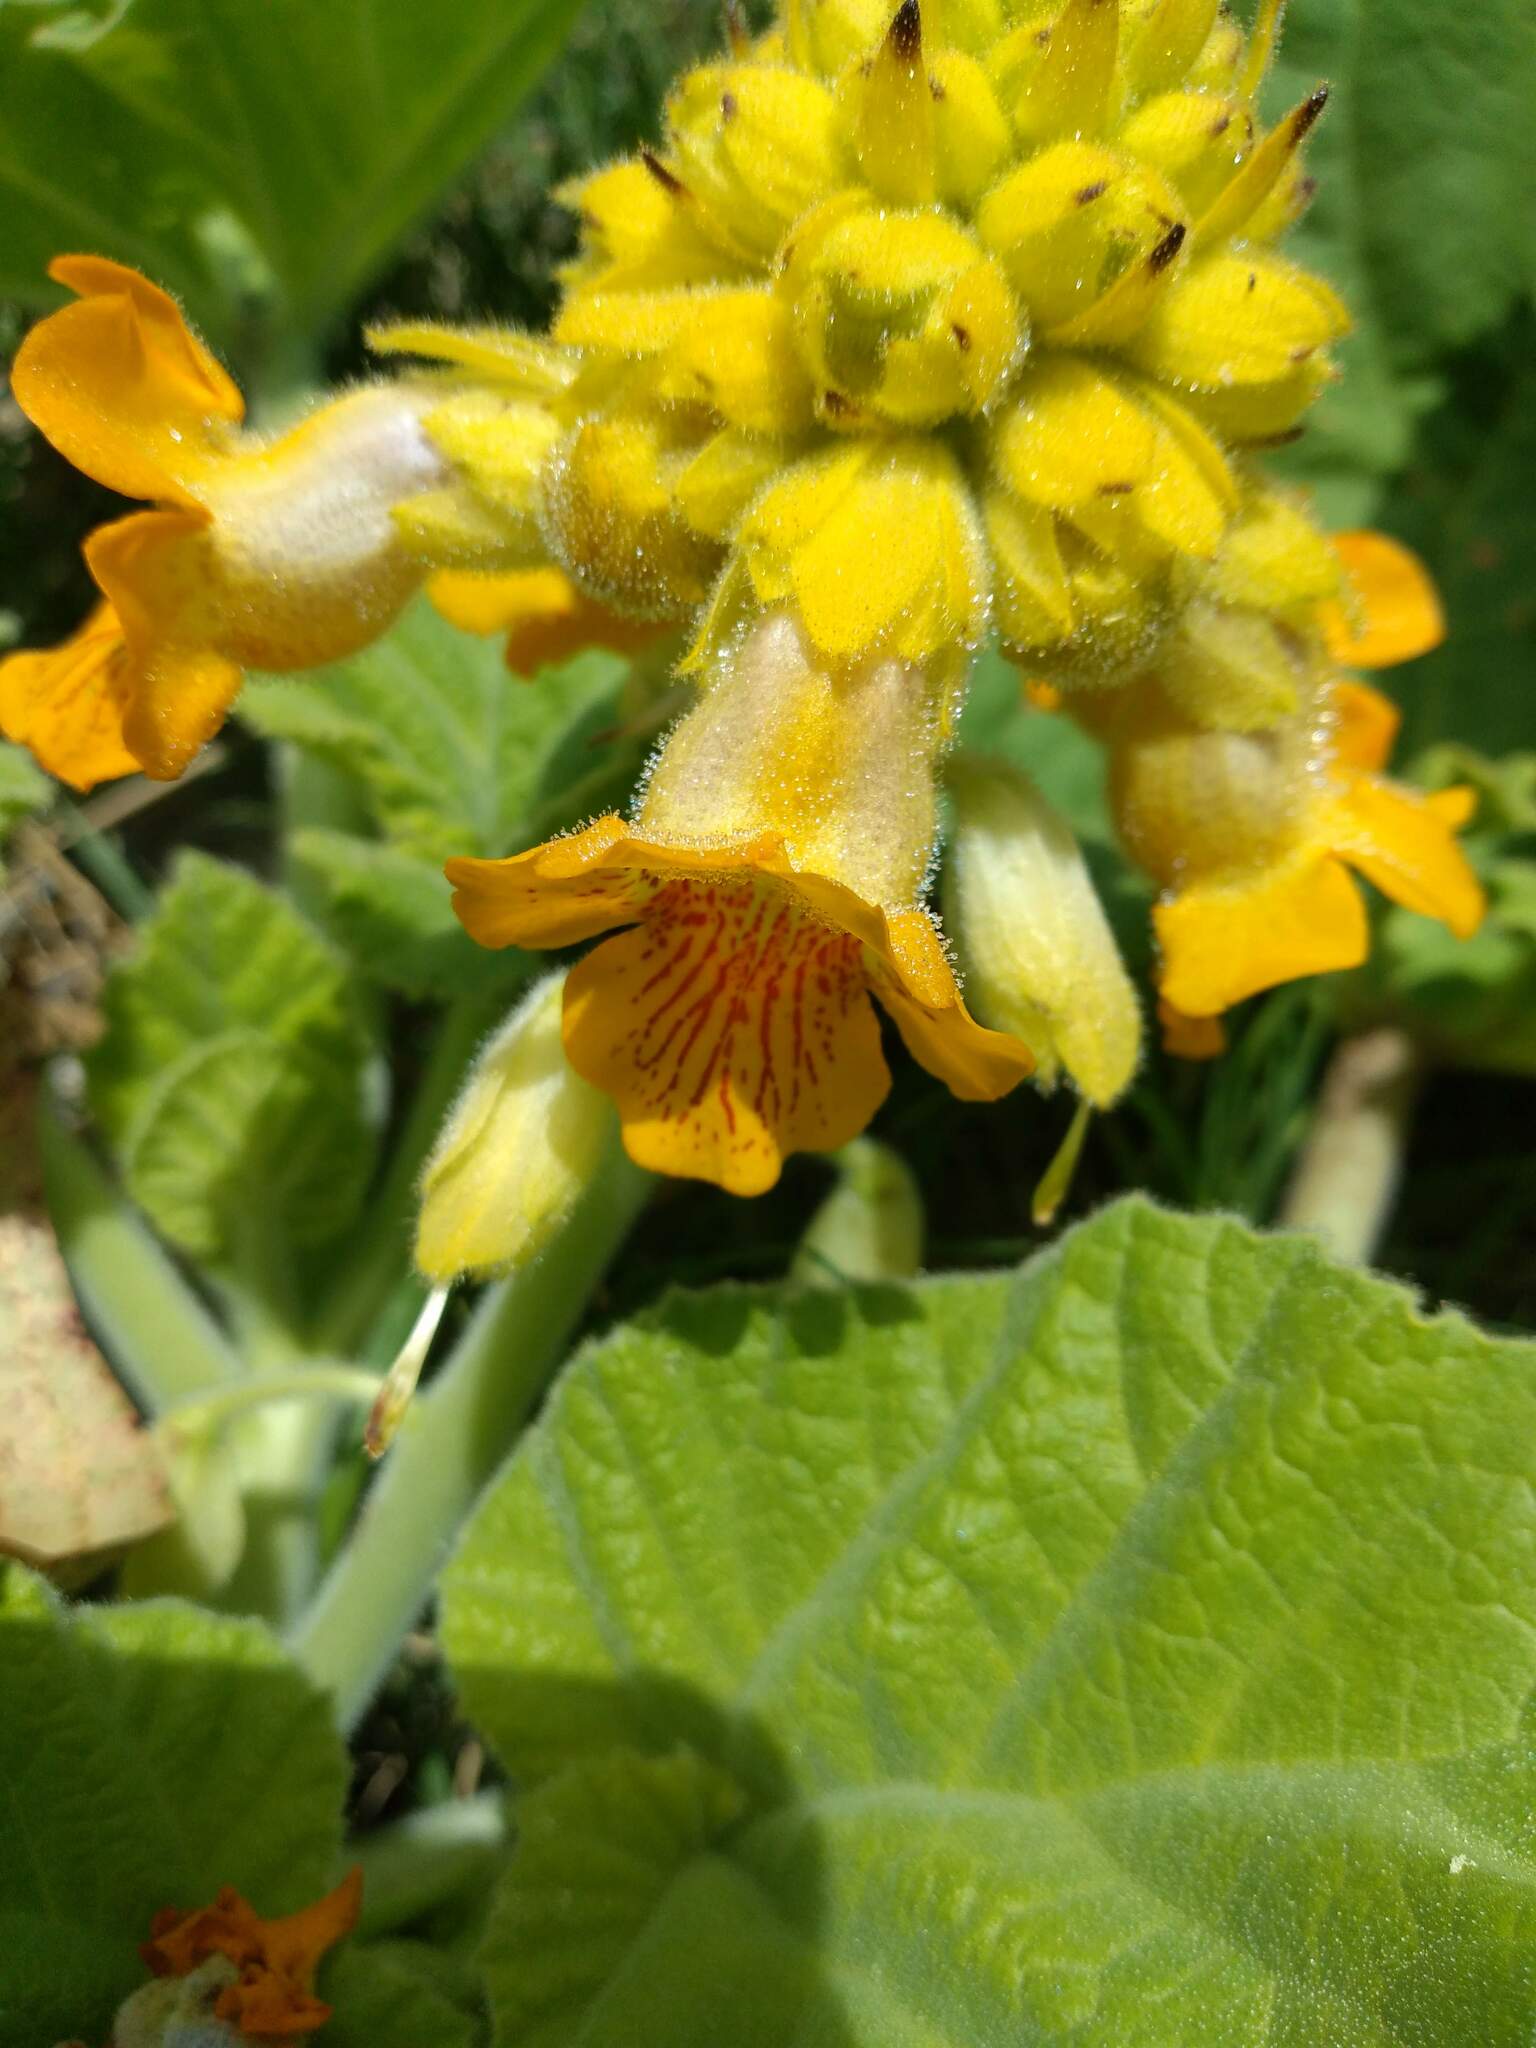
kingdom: Plantae
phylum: Tracheophyta
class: Magnoliopsida
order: Lamiales
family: Martyniaceae
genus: Ibicella
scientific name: Ibicella lutea
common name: Yellow unicorn-plant
